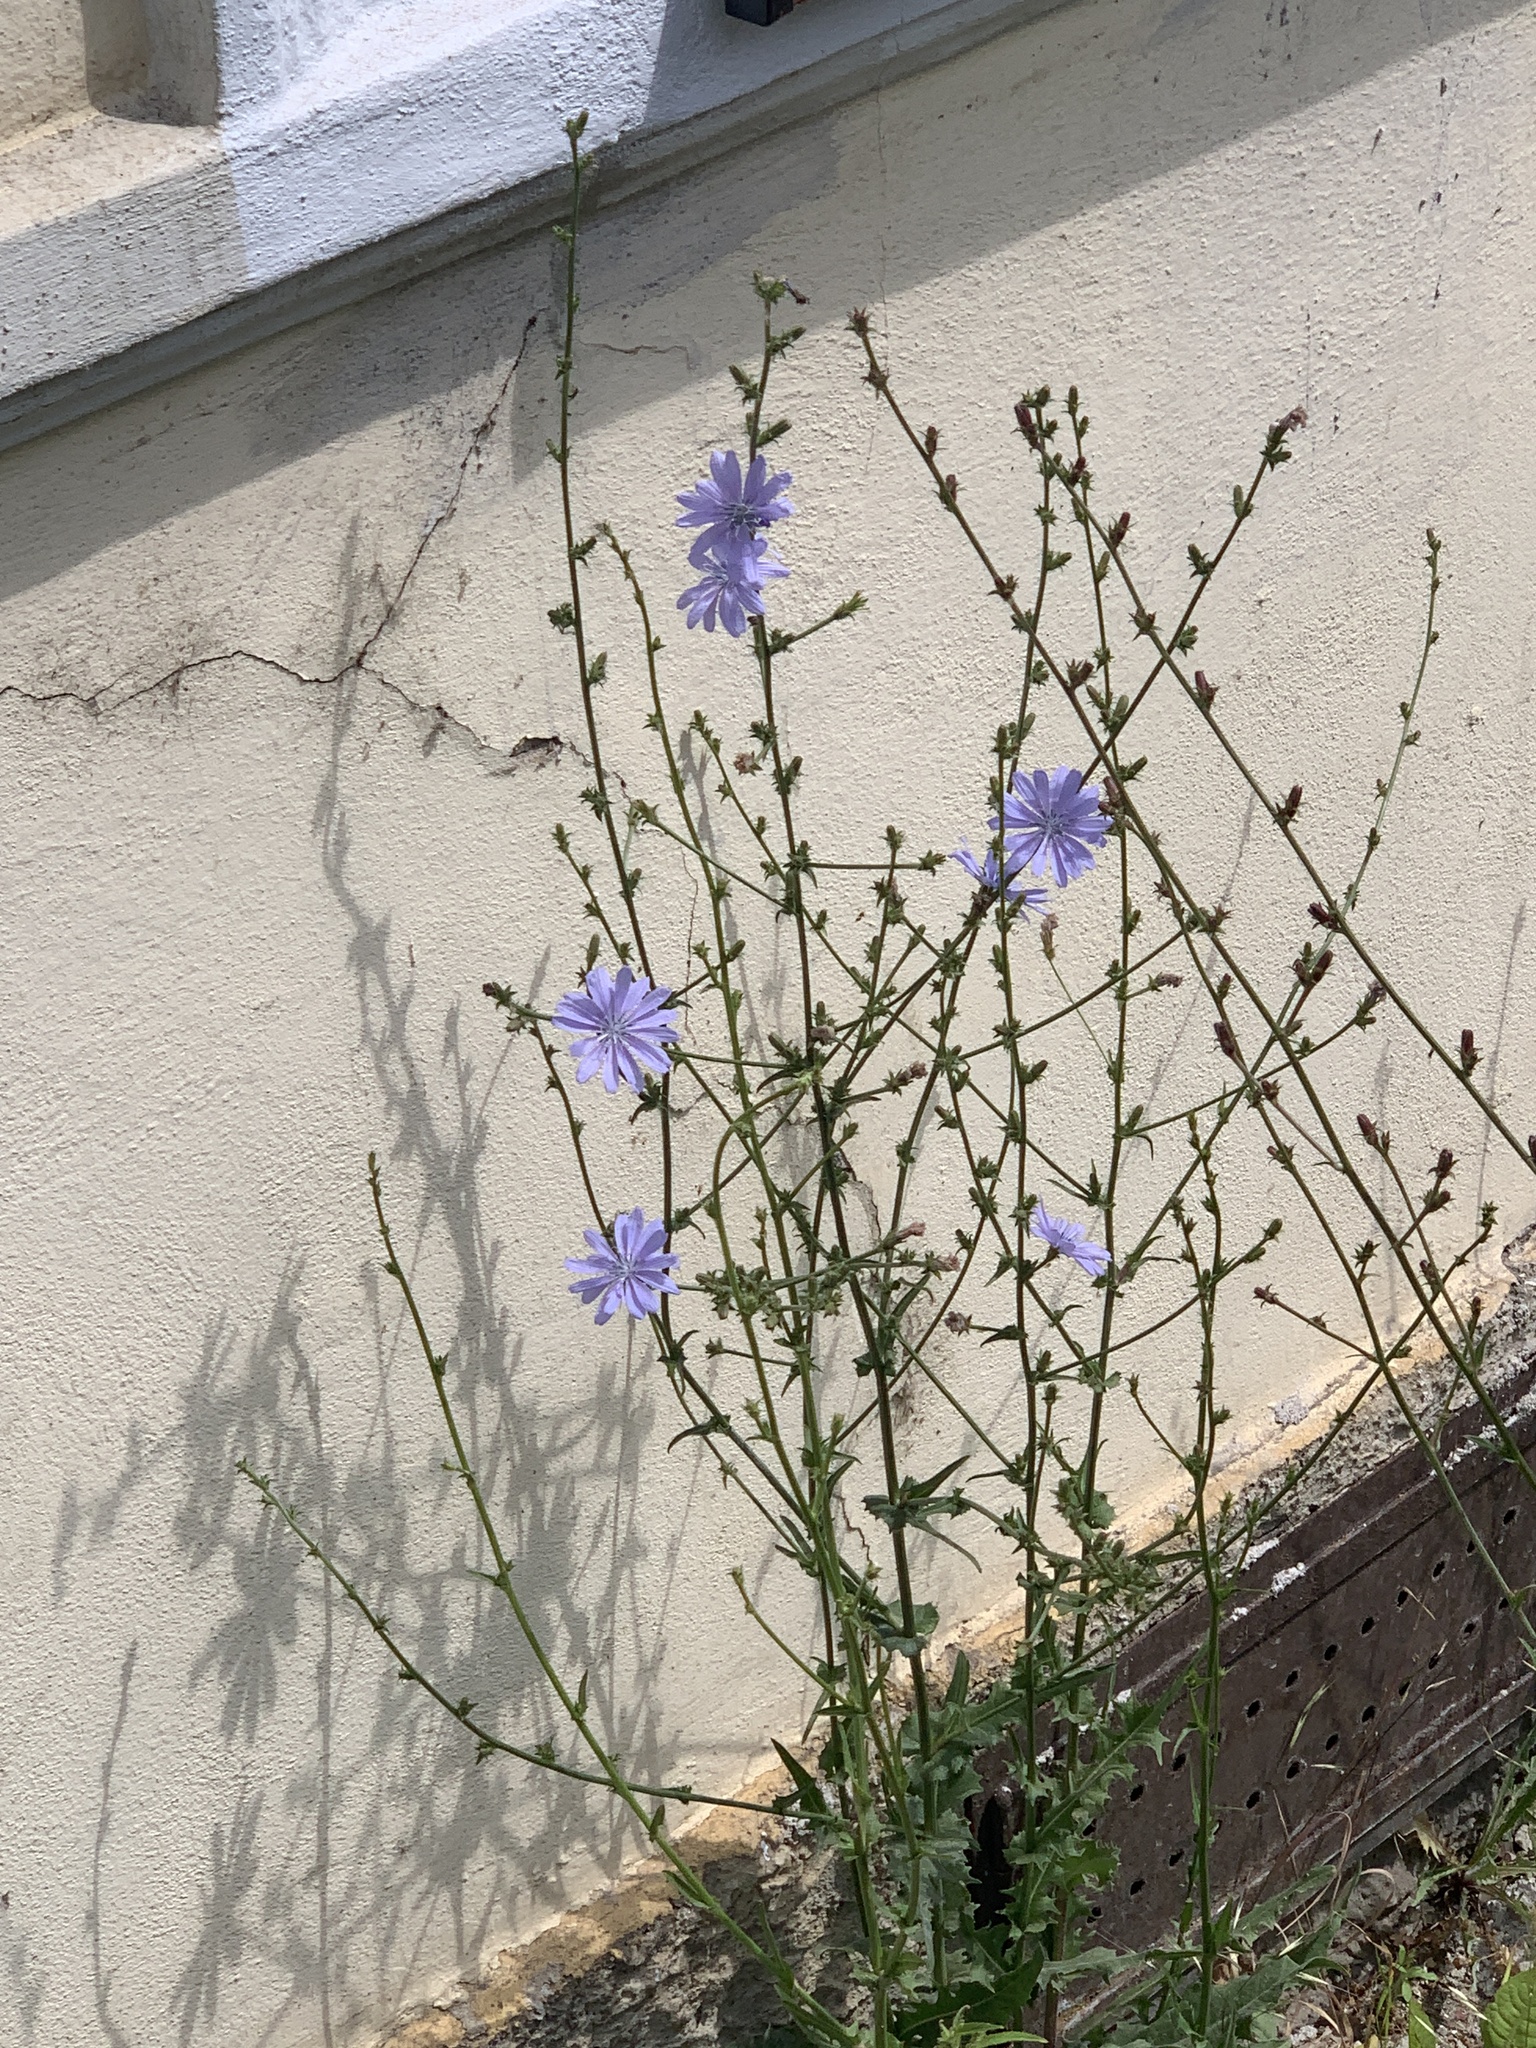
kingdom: Plantae
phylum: Tracheophyta
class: Magnoliopsida
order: Asterales
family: Asteraceae
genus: Cichorium
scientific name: Cichorium intybus
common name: Chicory
